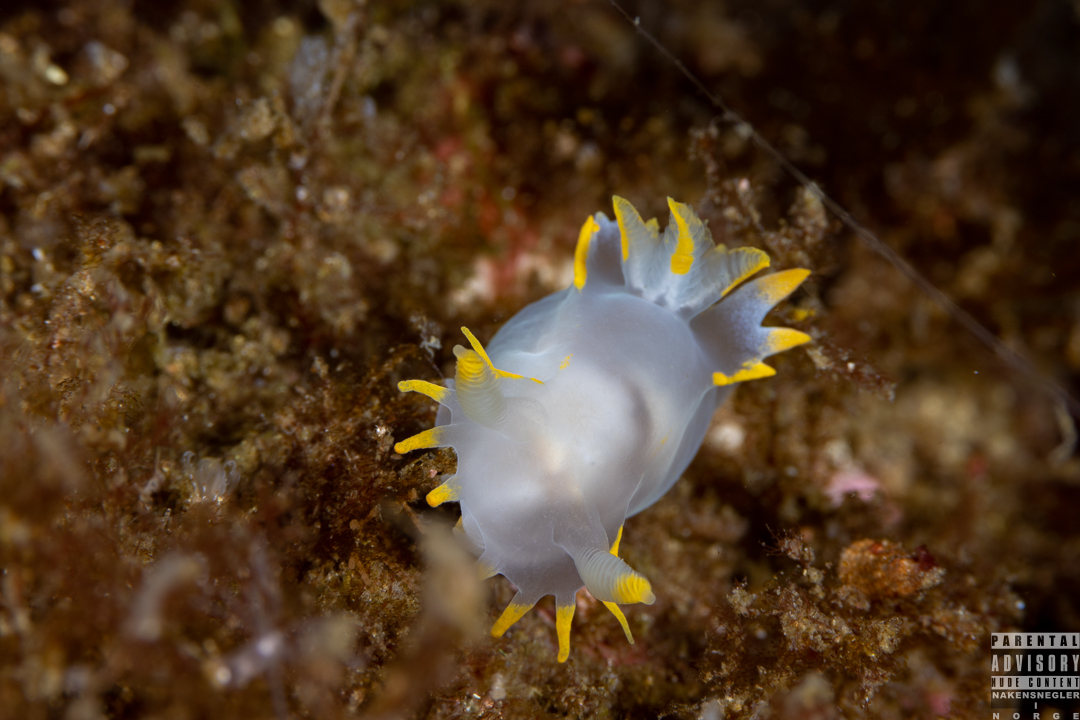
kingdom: Animalia
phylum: Mollusca
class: Gastropoda
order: Nudibranchia
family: Polyceridae
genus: Polycera
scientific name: Polycera faeroensis
